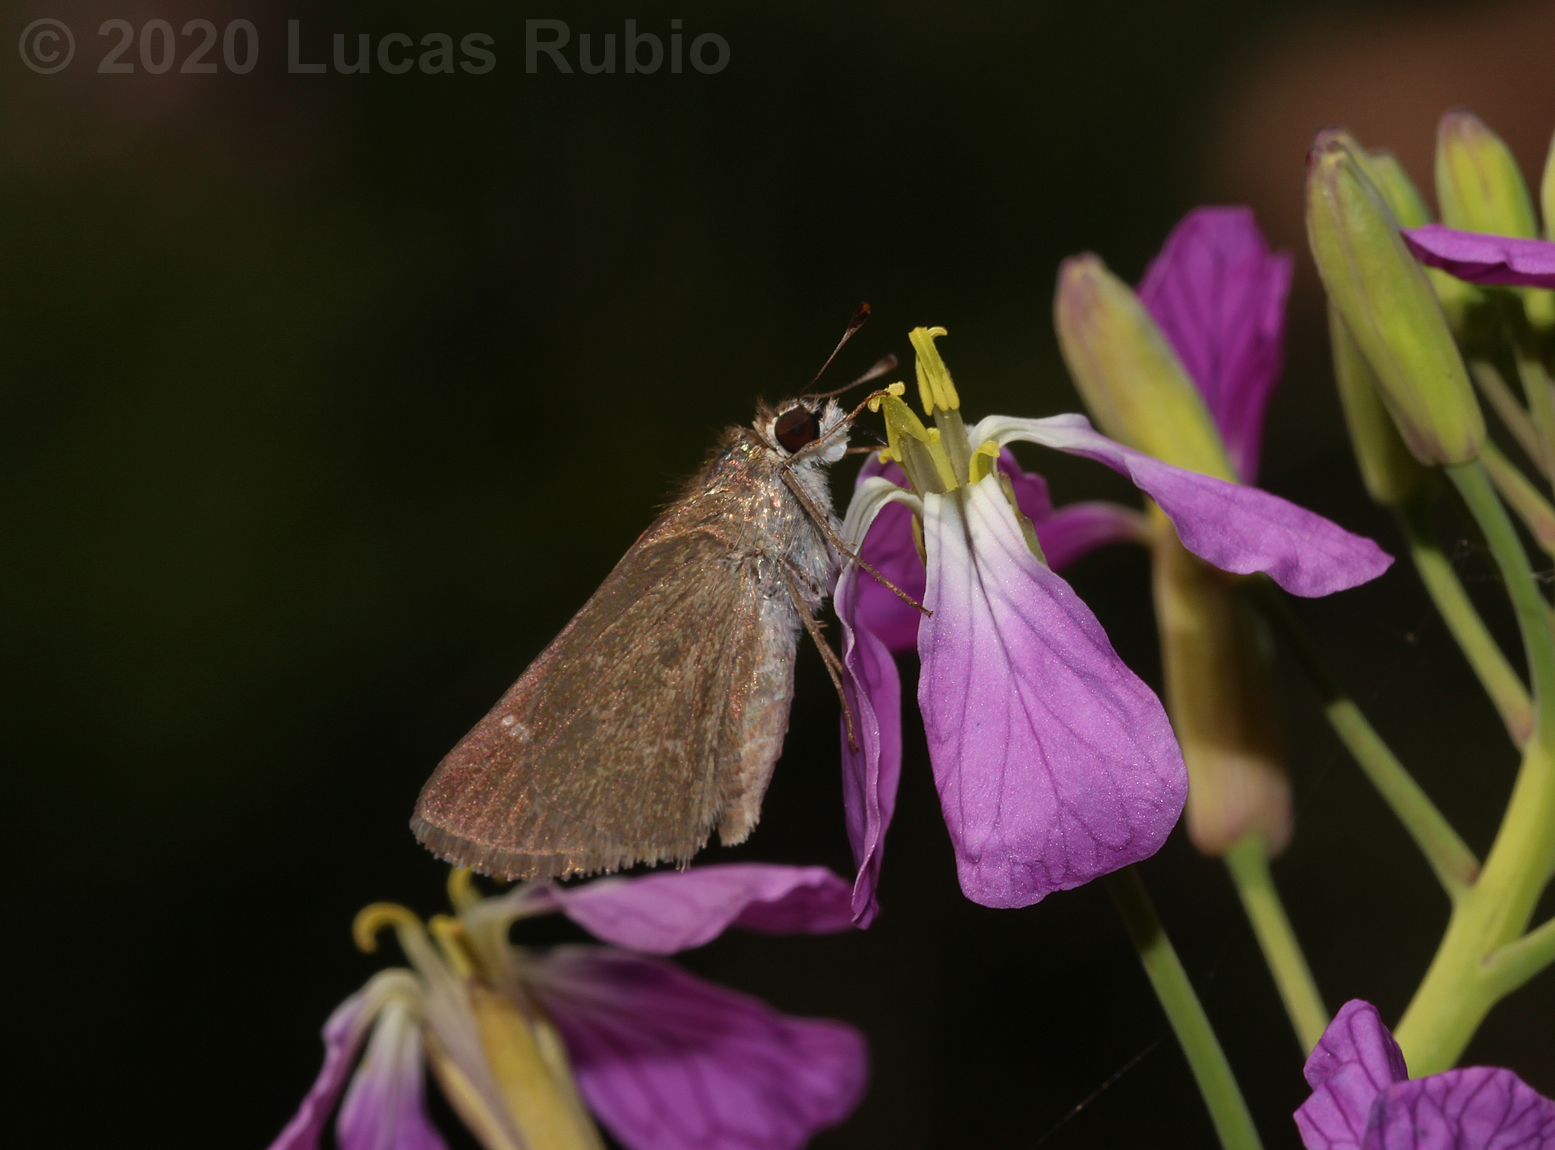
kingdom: Animalia
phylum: Arthropoda
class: Insecta
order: Lepidoptera
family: Hesperiidae
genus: Lerodea
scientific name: Lerodea eufala
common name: Eufala skipper
